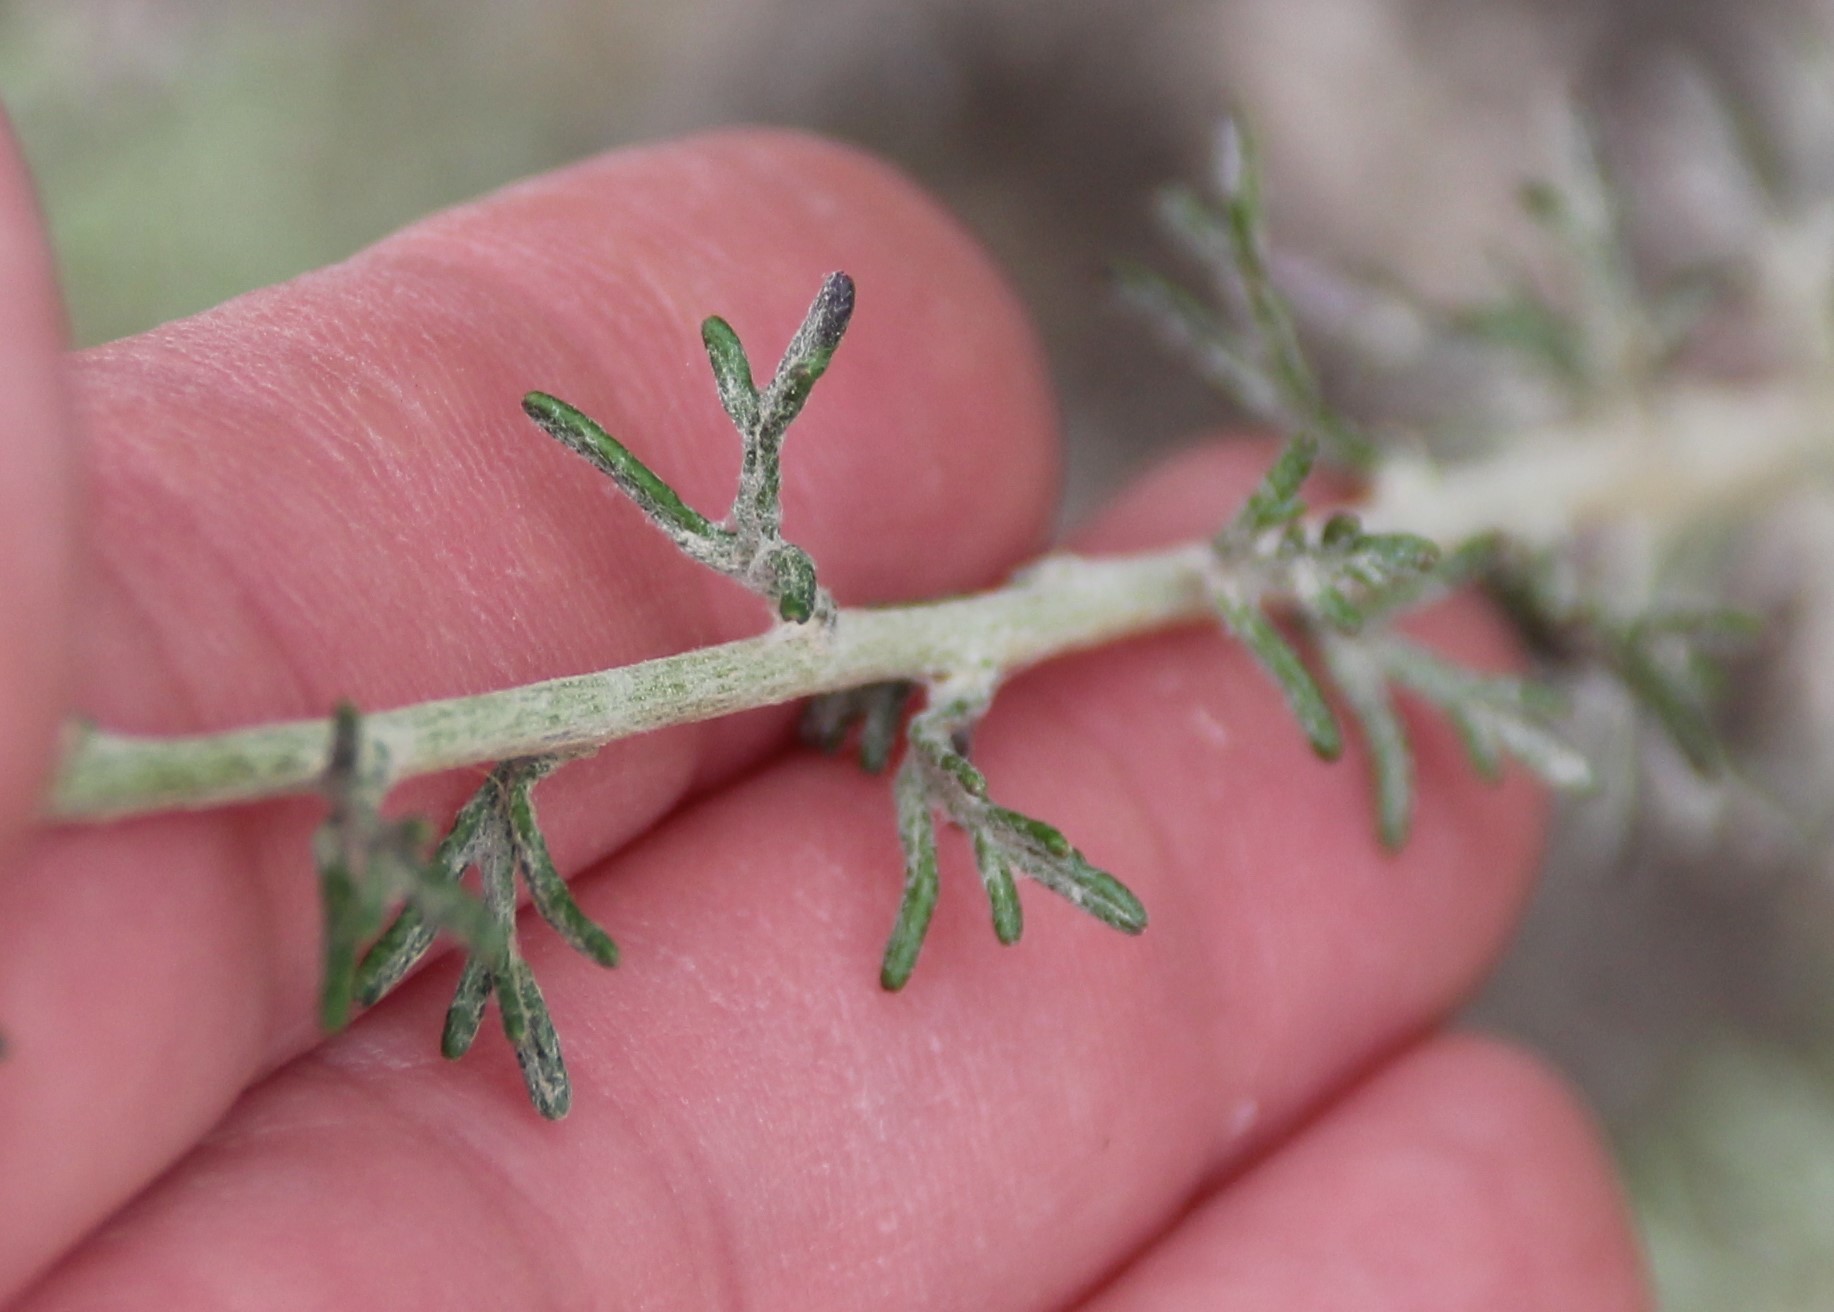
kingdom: Plantae
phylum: Tracheophyta
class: Magnoliopsida
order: Asterales
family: Asteraceae
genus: Eriophyllum
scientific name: Eriophyllum confertiflorum
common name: Golden-yarrow
